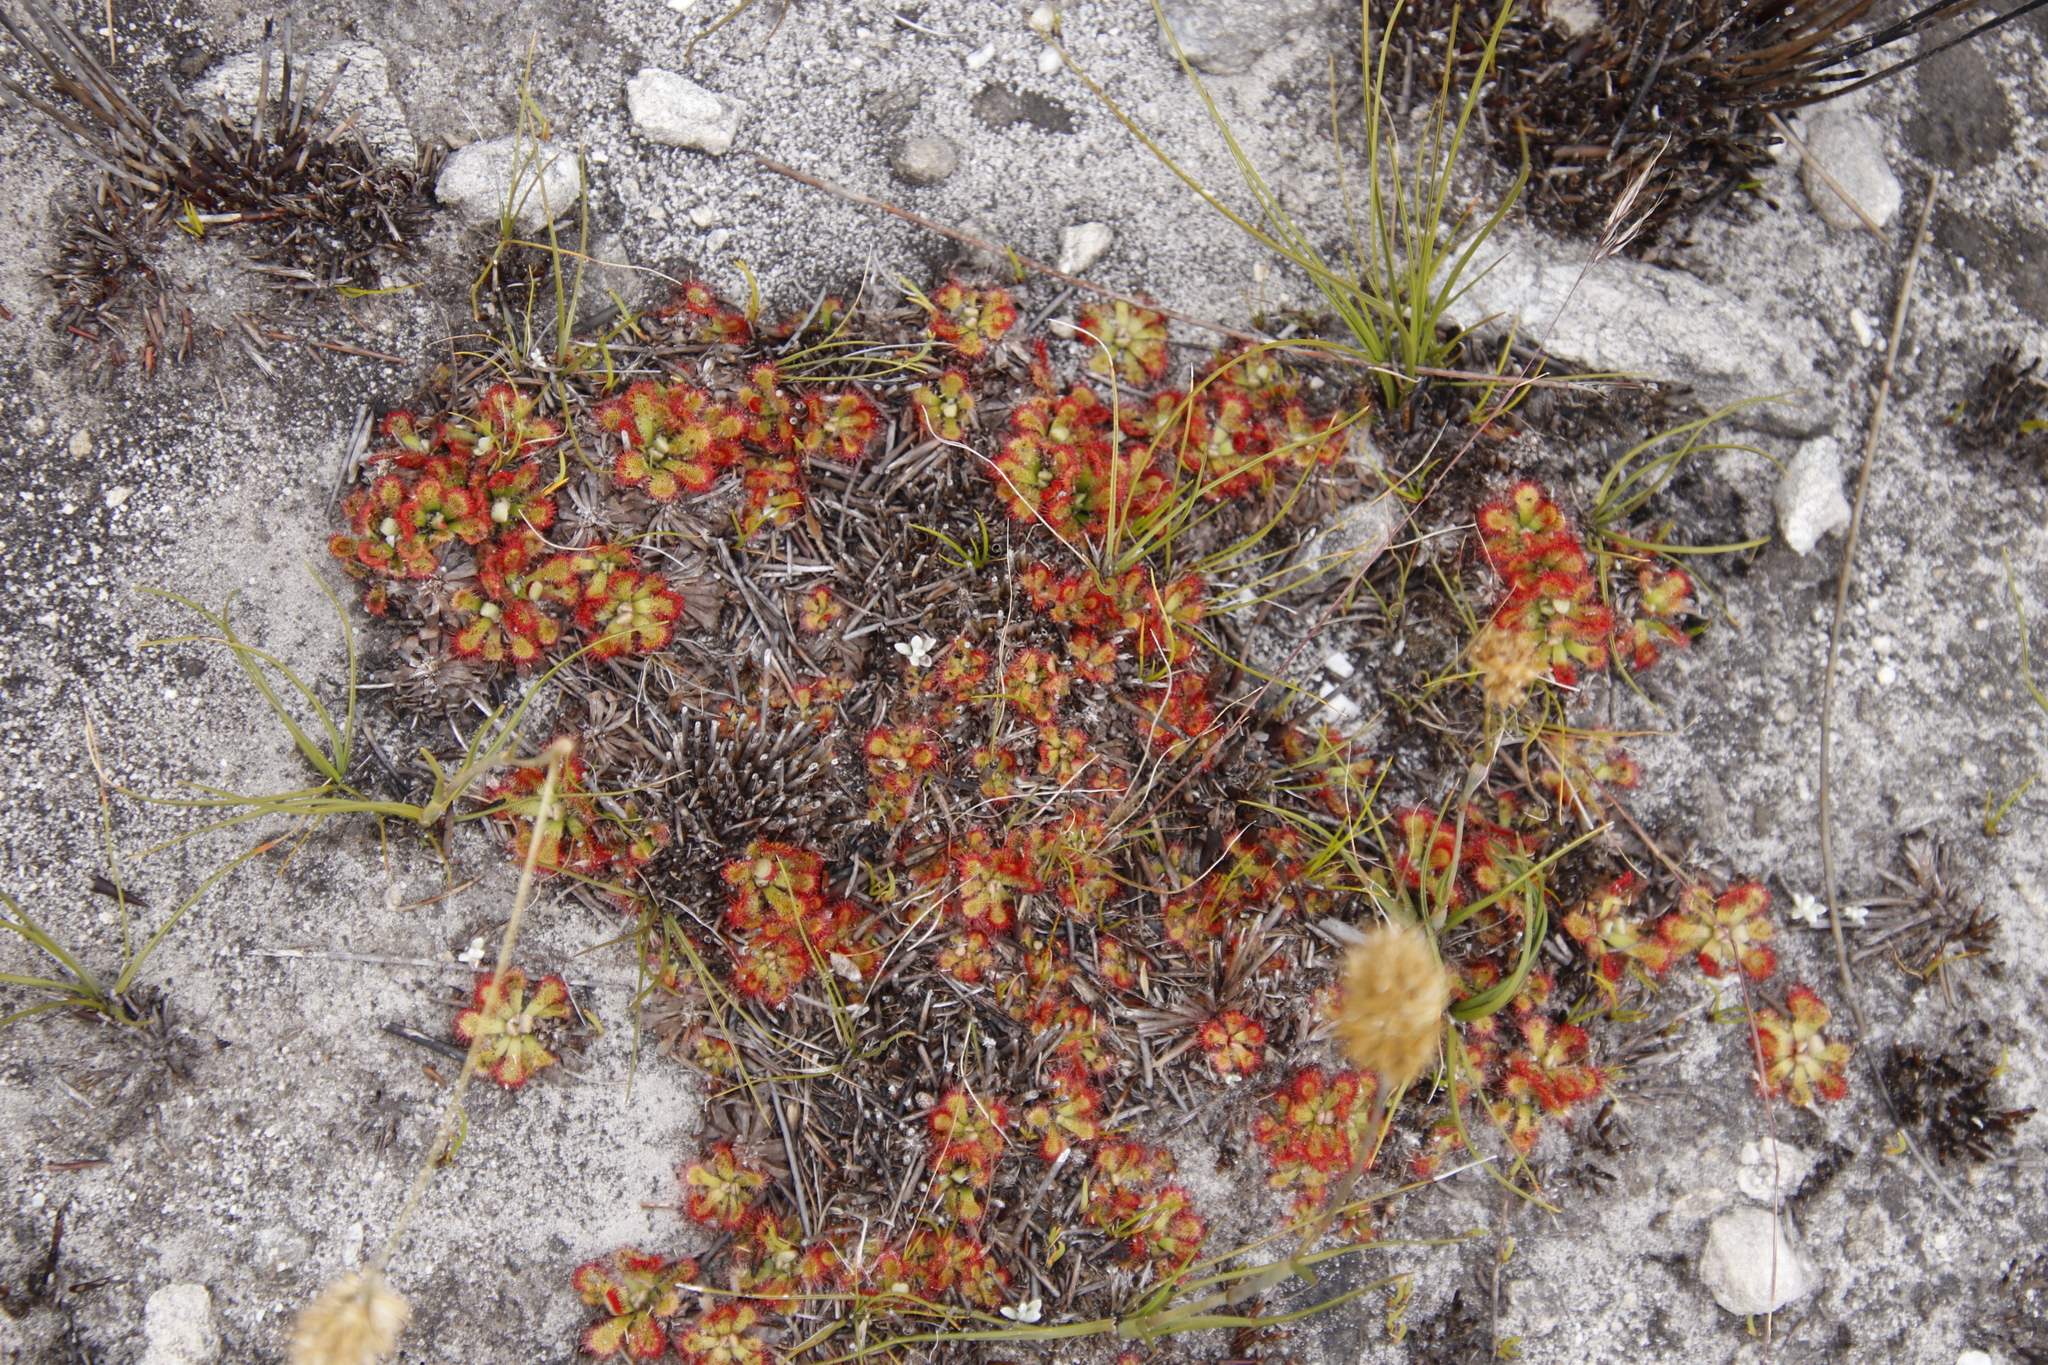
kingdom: Plantae
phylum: Tracheophyta
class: Magnoliopsida
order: Caryophyllales
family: Droseraceae
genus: Drosera
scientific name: Drosera aliciae
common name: Alice sundew
